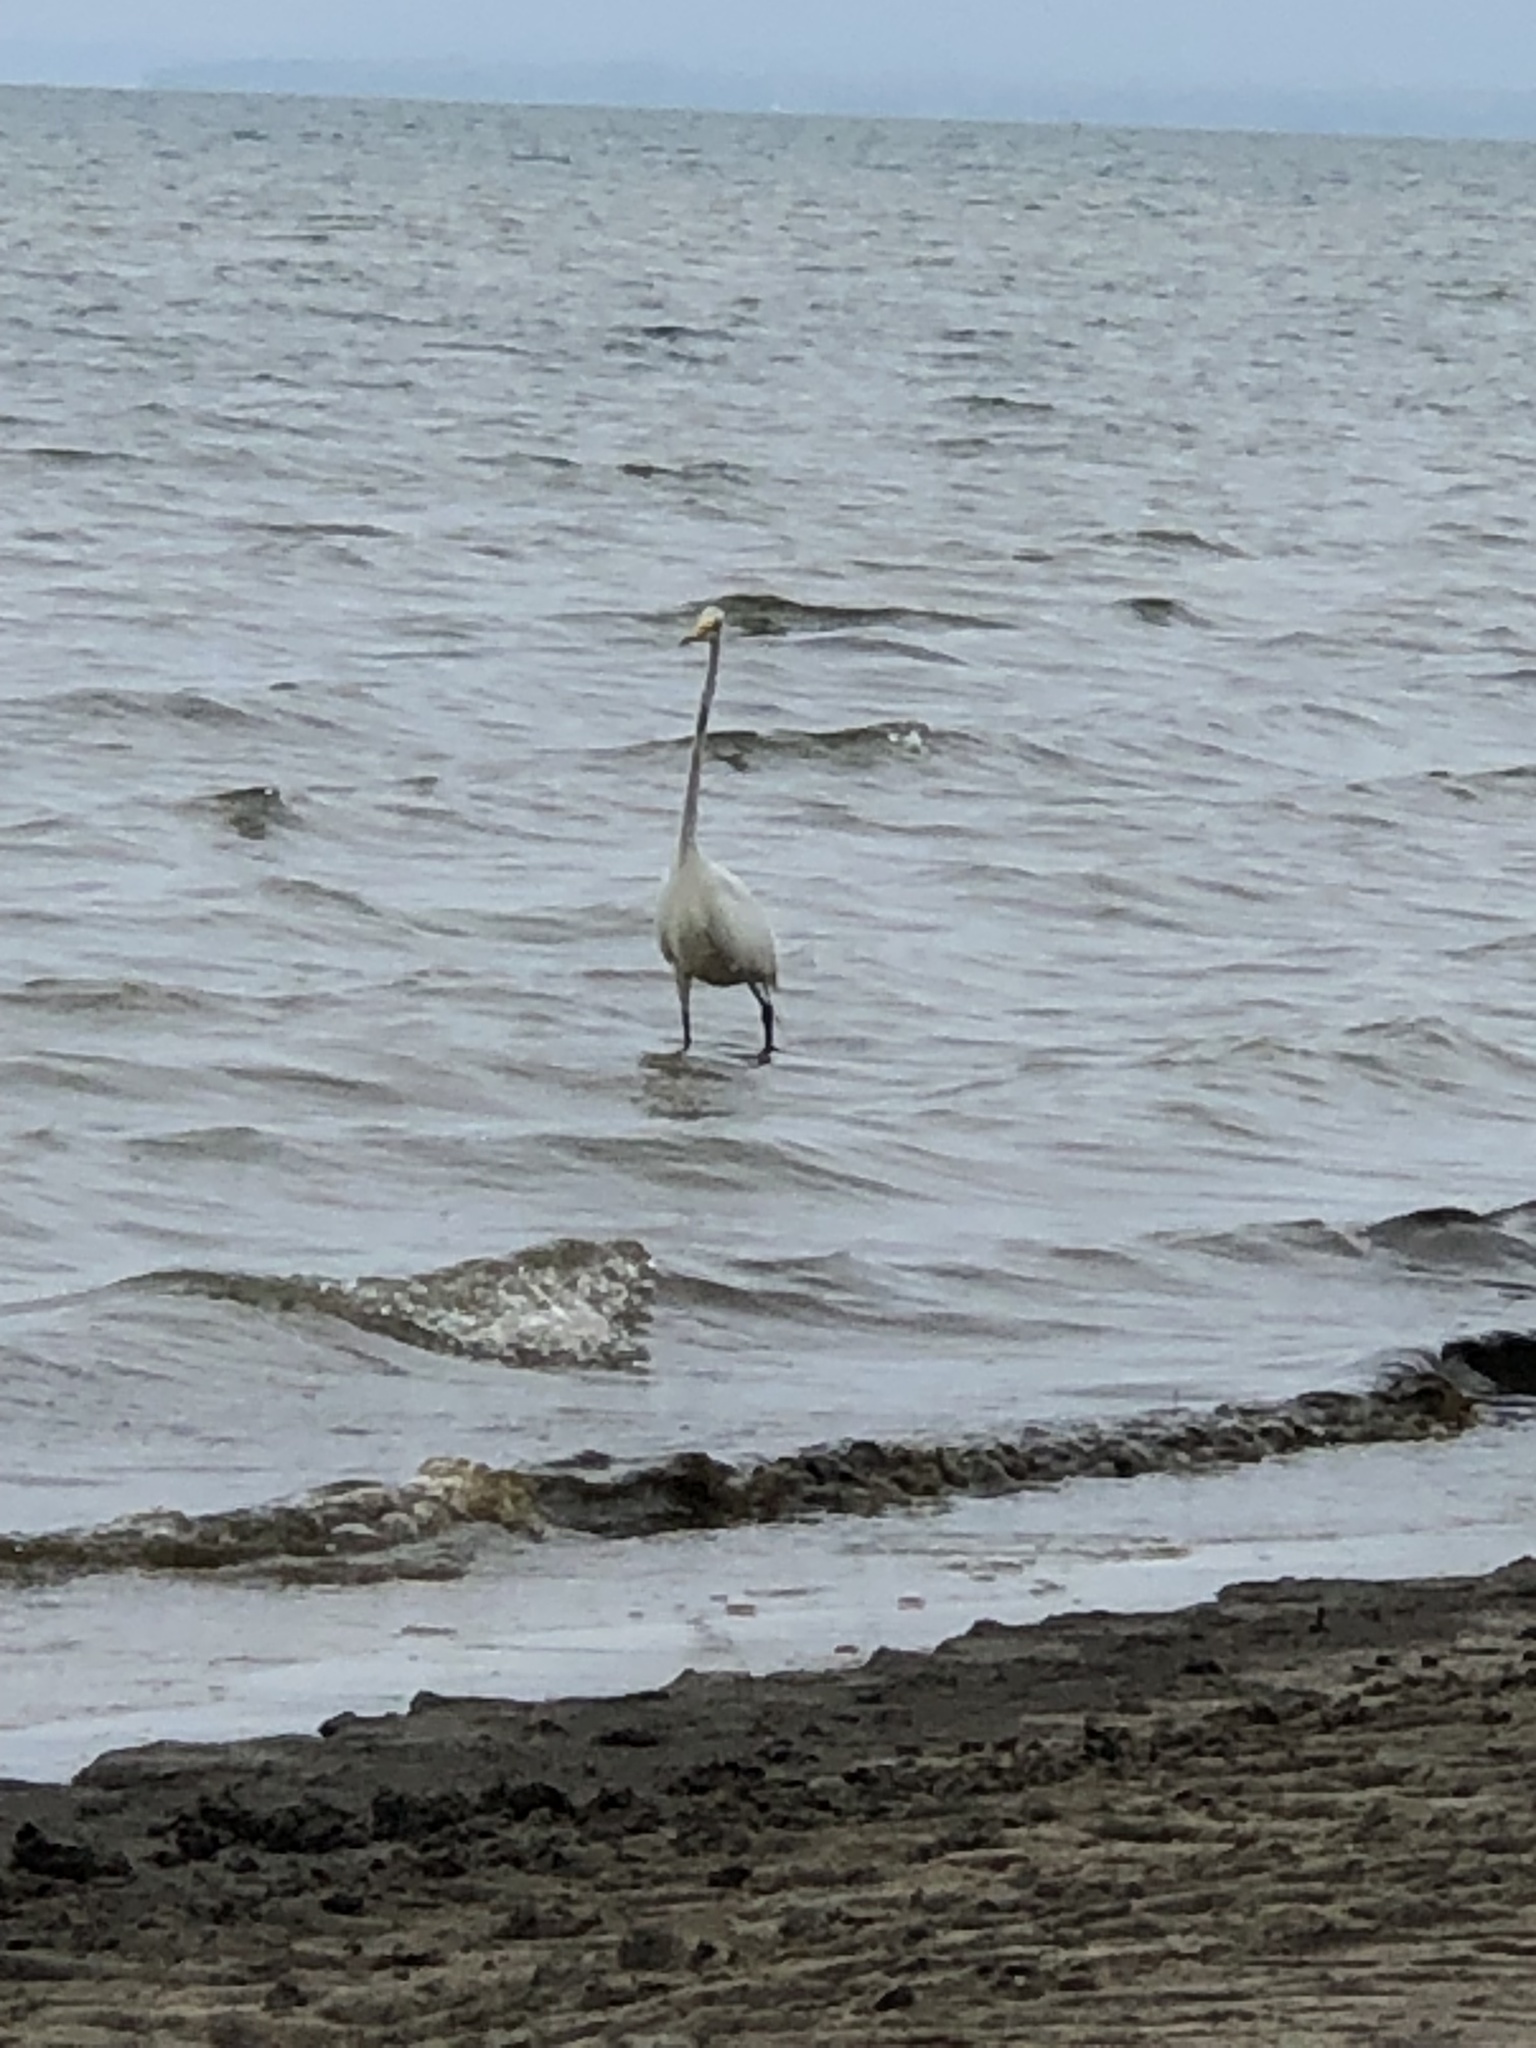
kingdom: Animalia
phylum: Chordata
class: Aves
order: Pelecaniformes
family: Ardeidae
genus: Ardea
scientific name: Ardea alba
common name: Great egret
